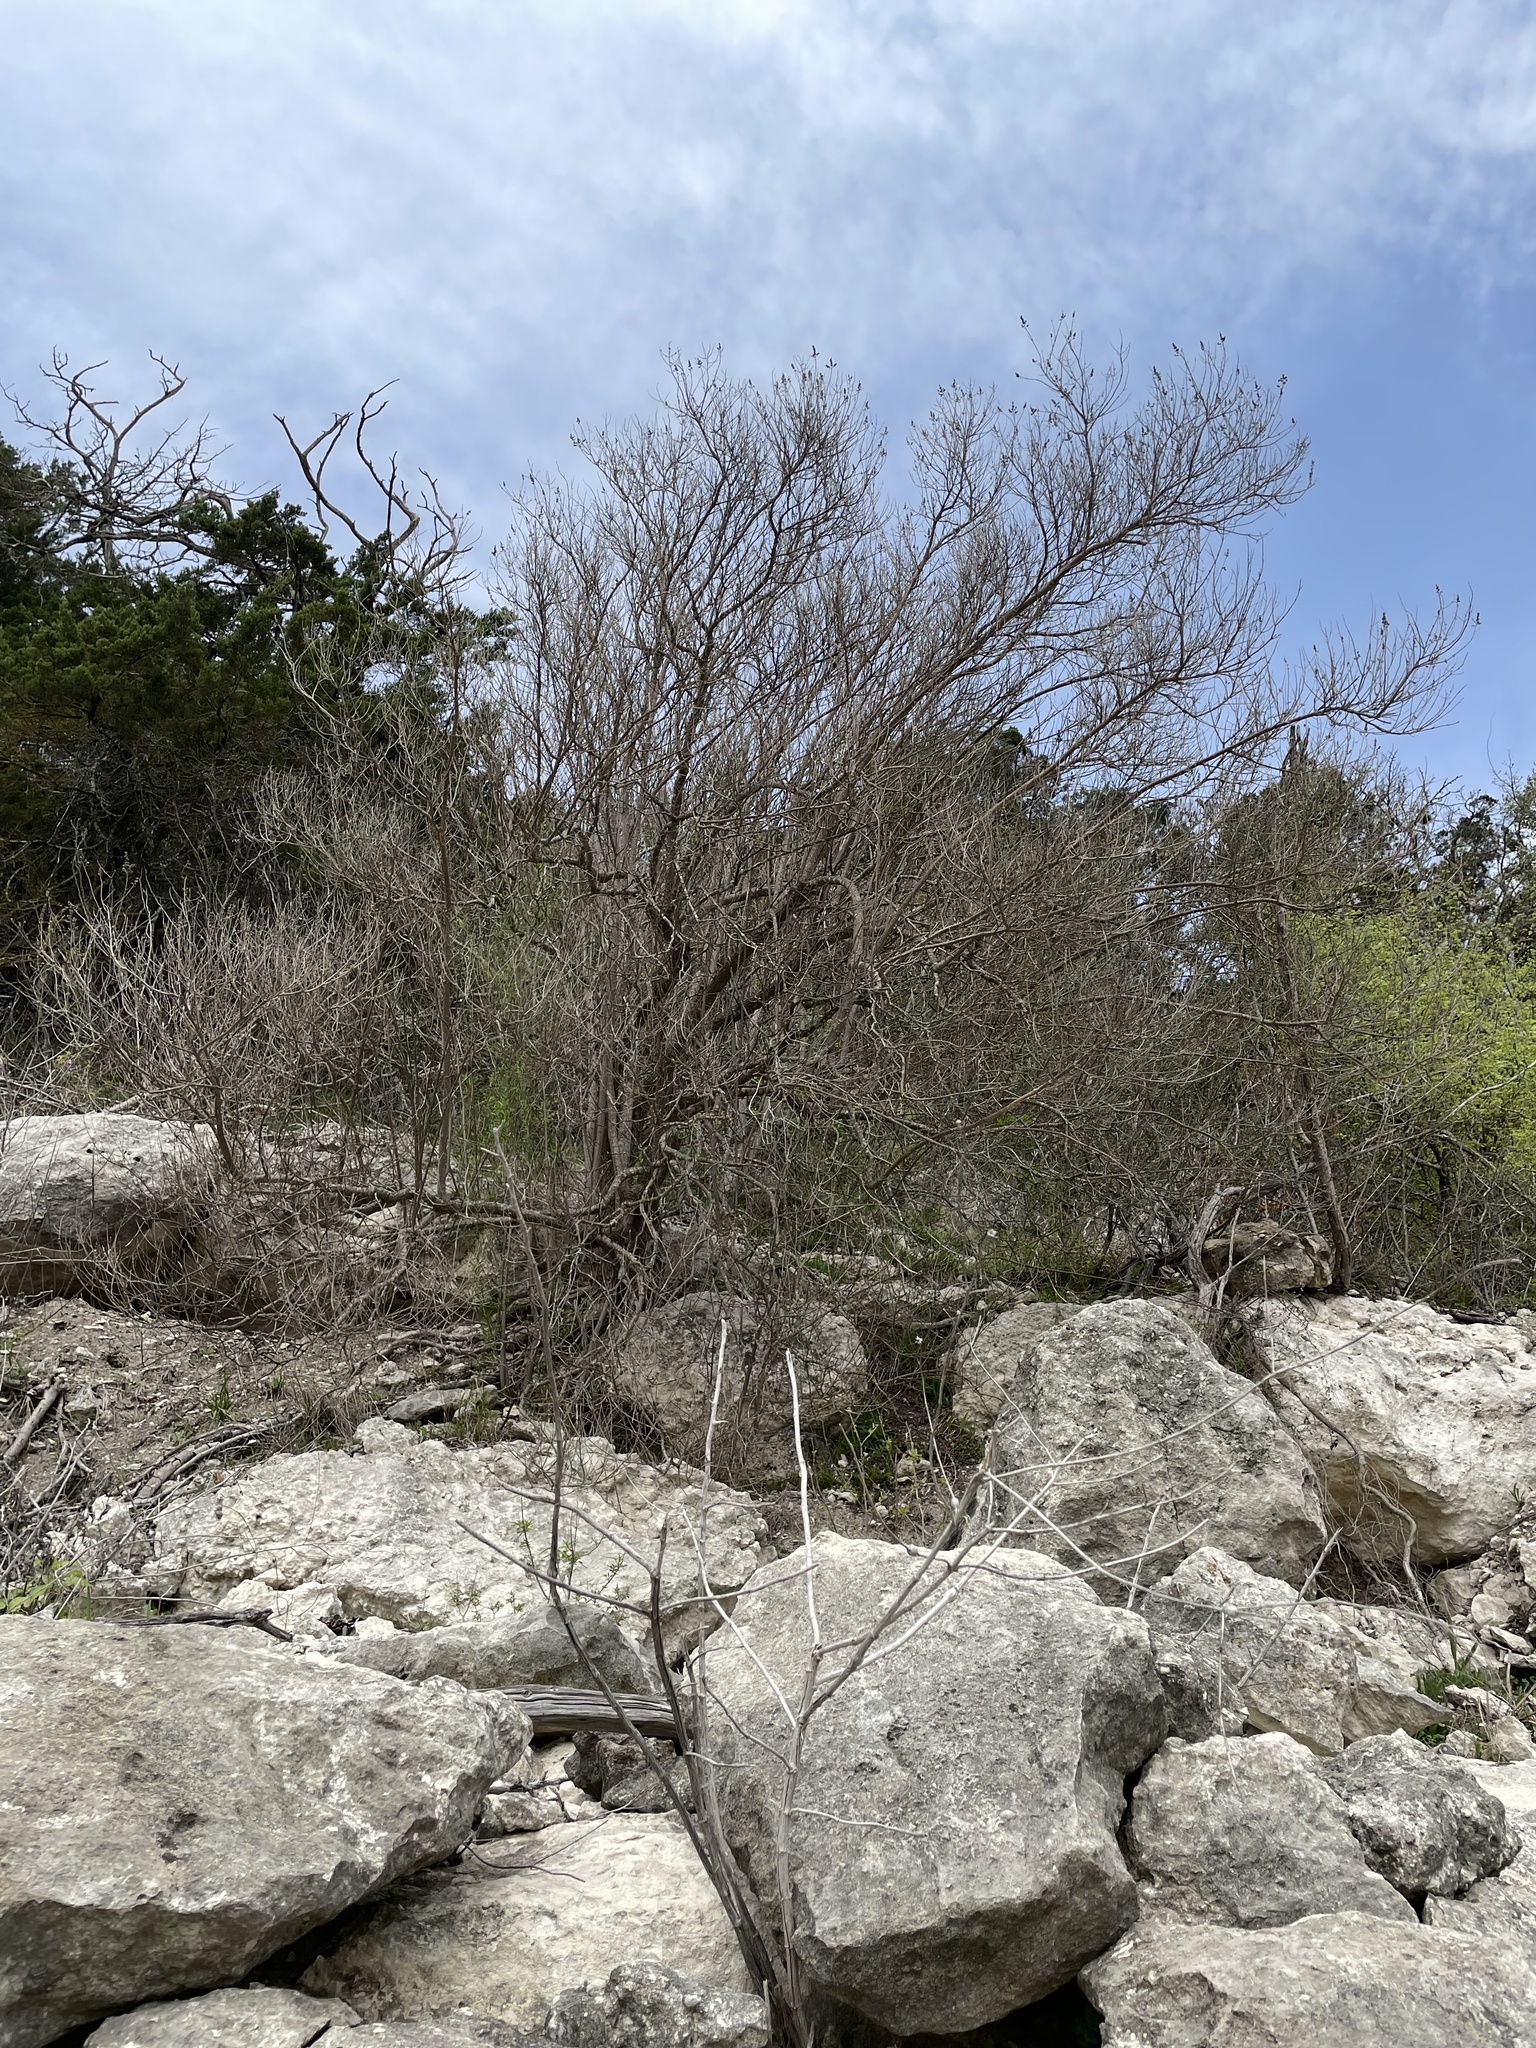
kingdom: Plantae
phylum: Tracheophyta
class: Magnoliopsida
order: Lamiales
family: Lamiaceae
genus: Vitex
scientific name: Vitex agnus-castus
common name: Chasteberry
